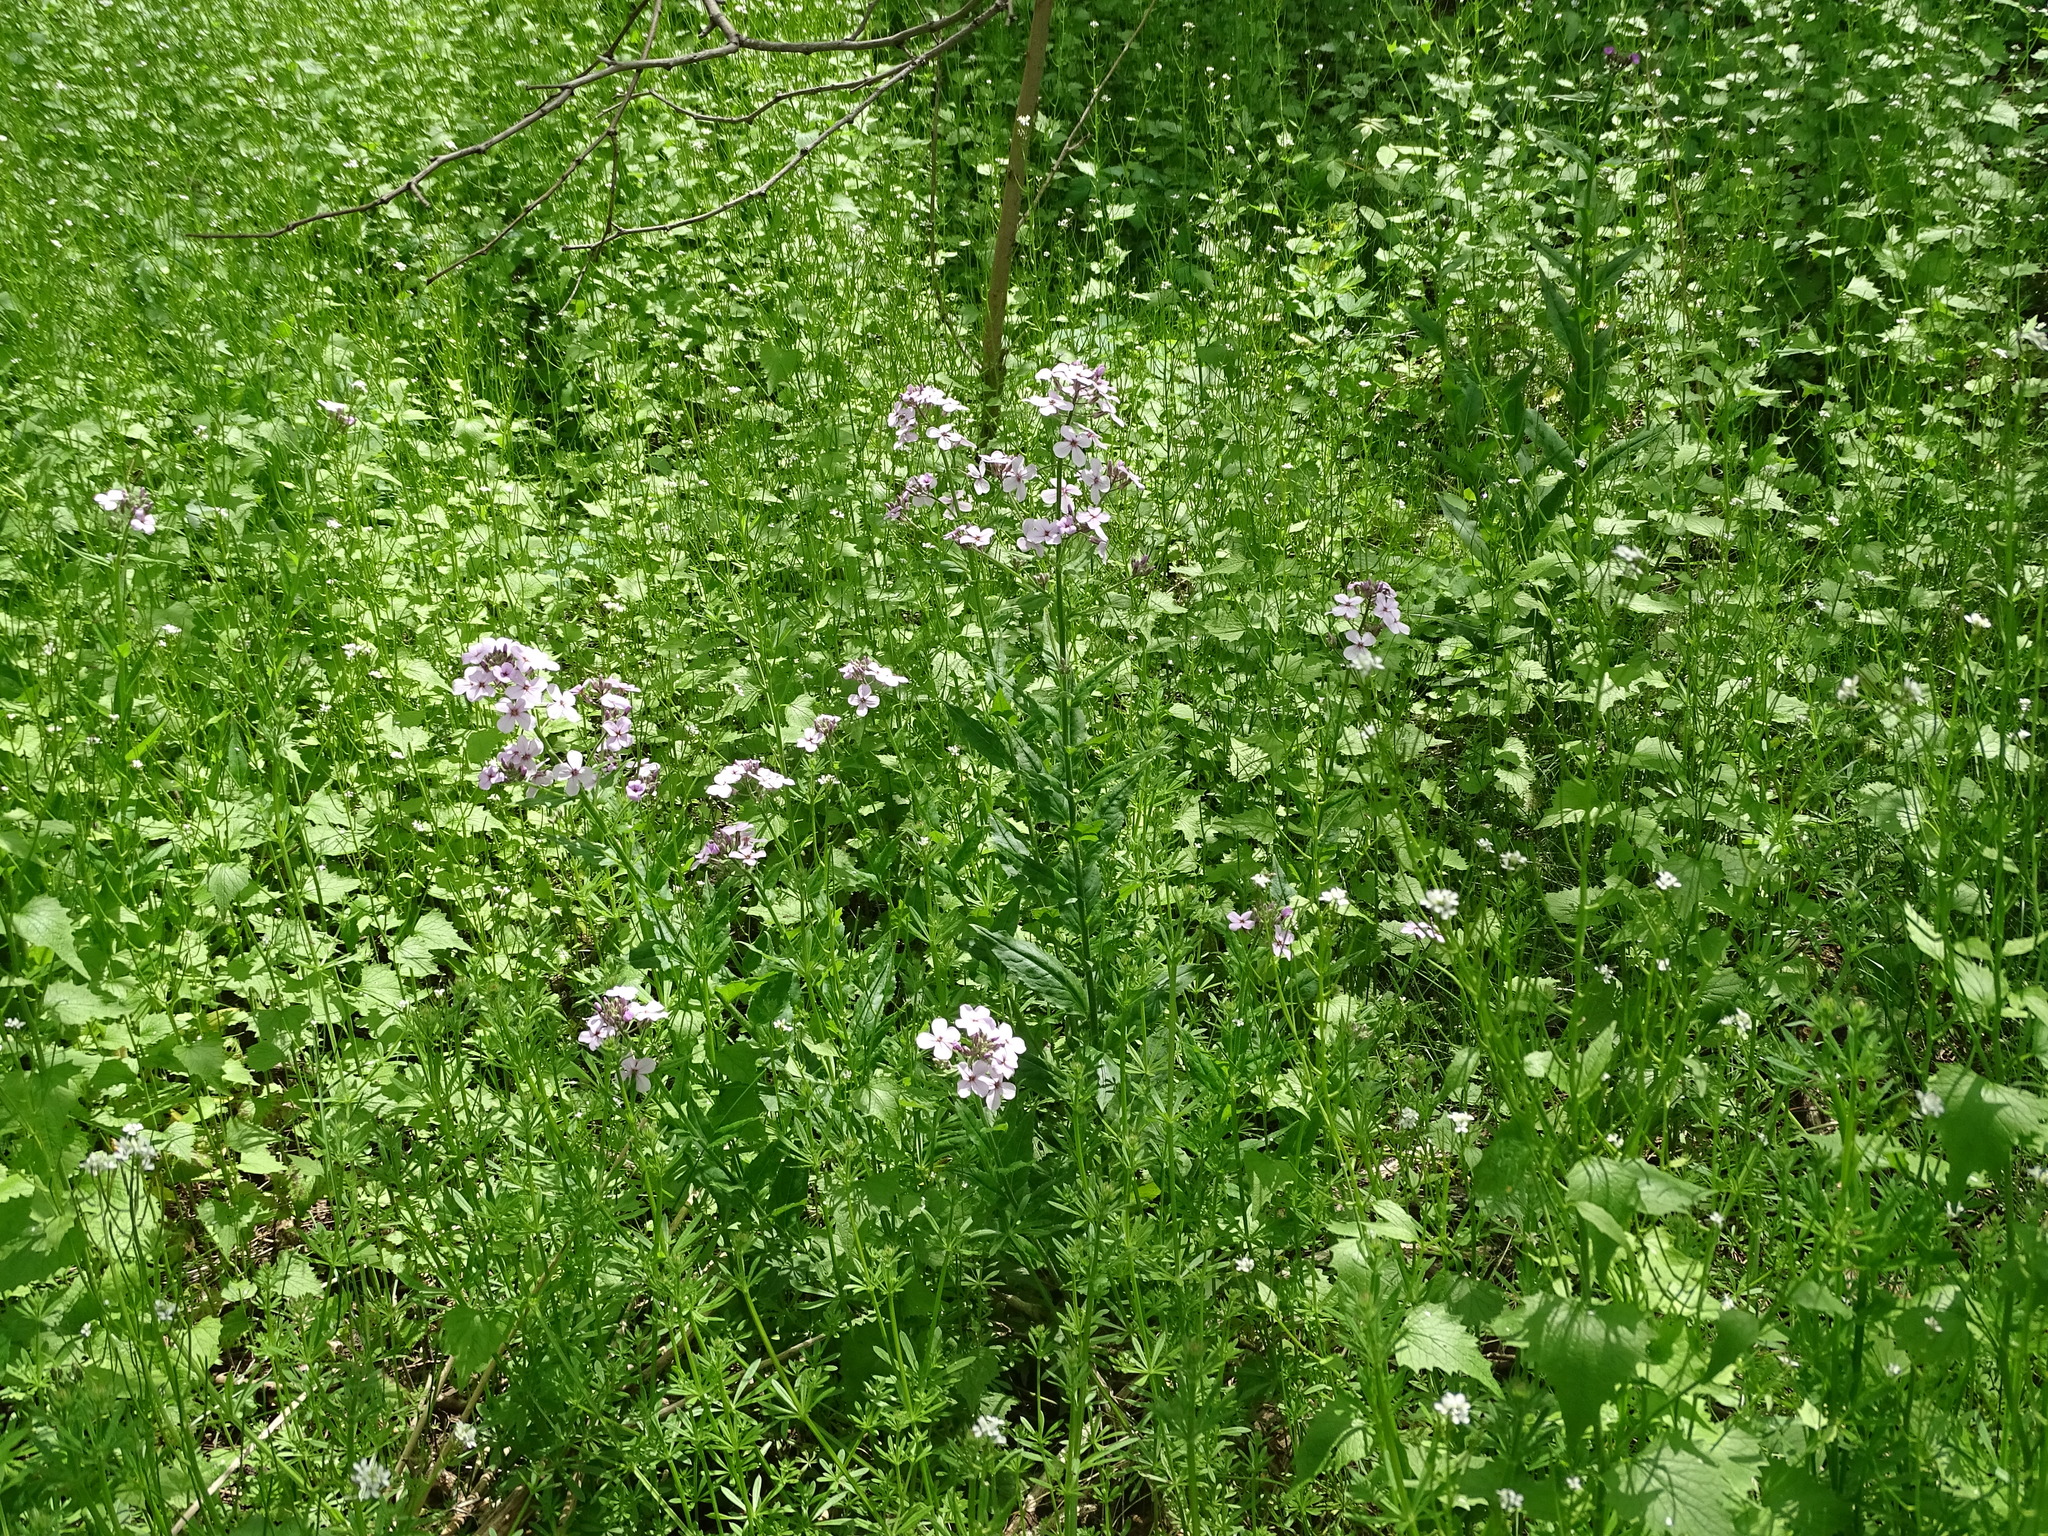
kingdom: Plantae
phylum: Tracheophyta
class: Magnoliopsida
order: Brassicales
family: Brassicaceae
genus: Hesperis
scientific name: Hesperis matronalis
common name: Dame's-violet
